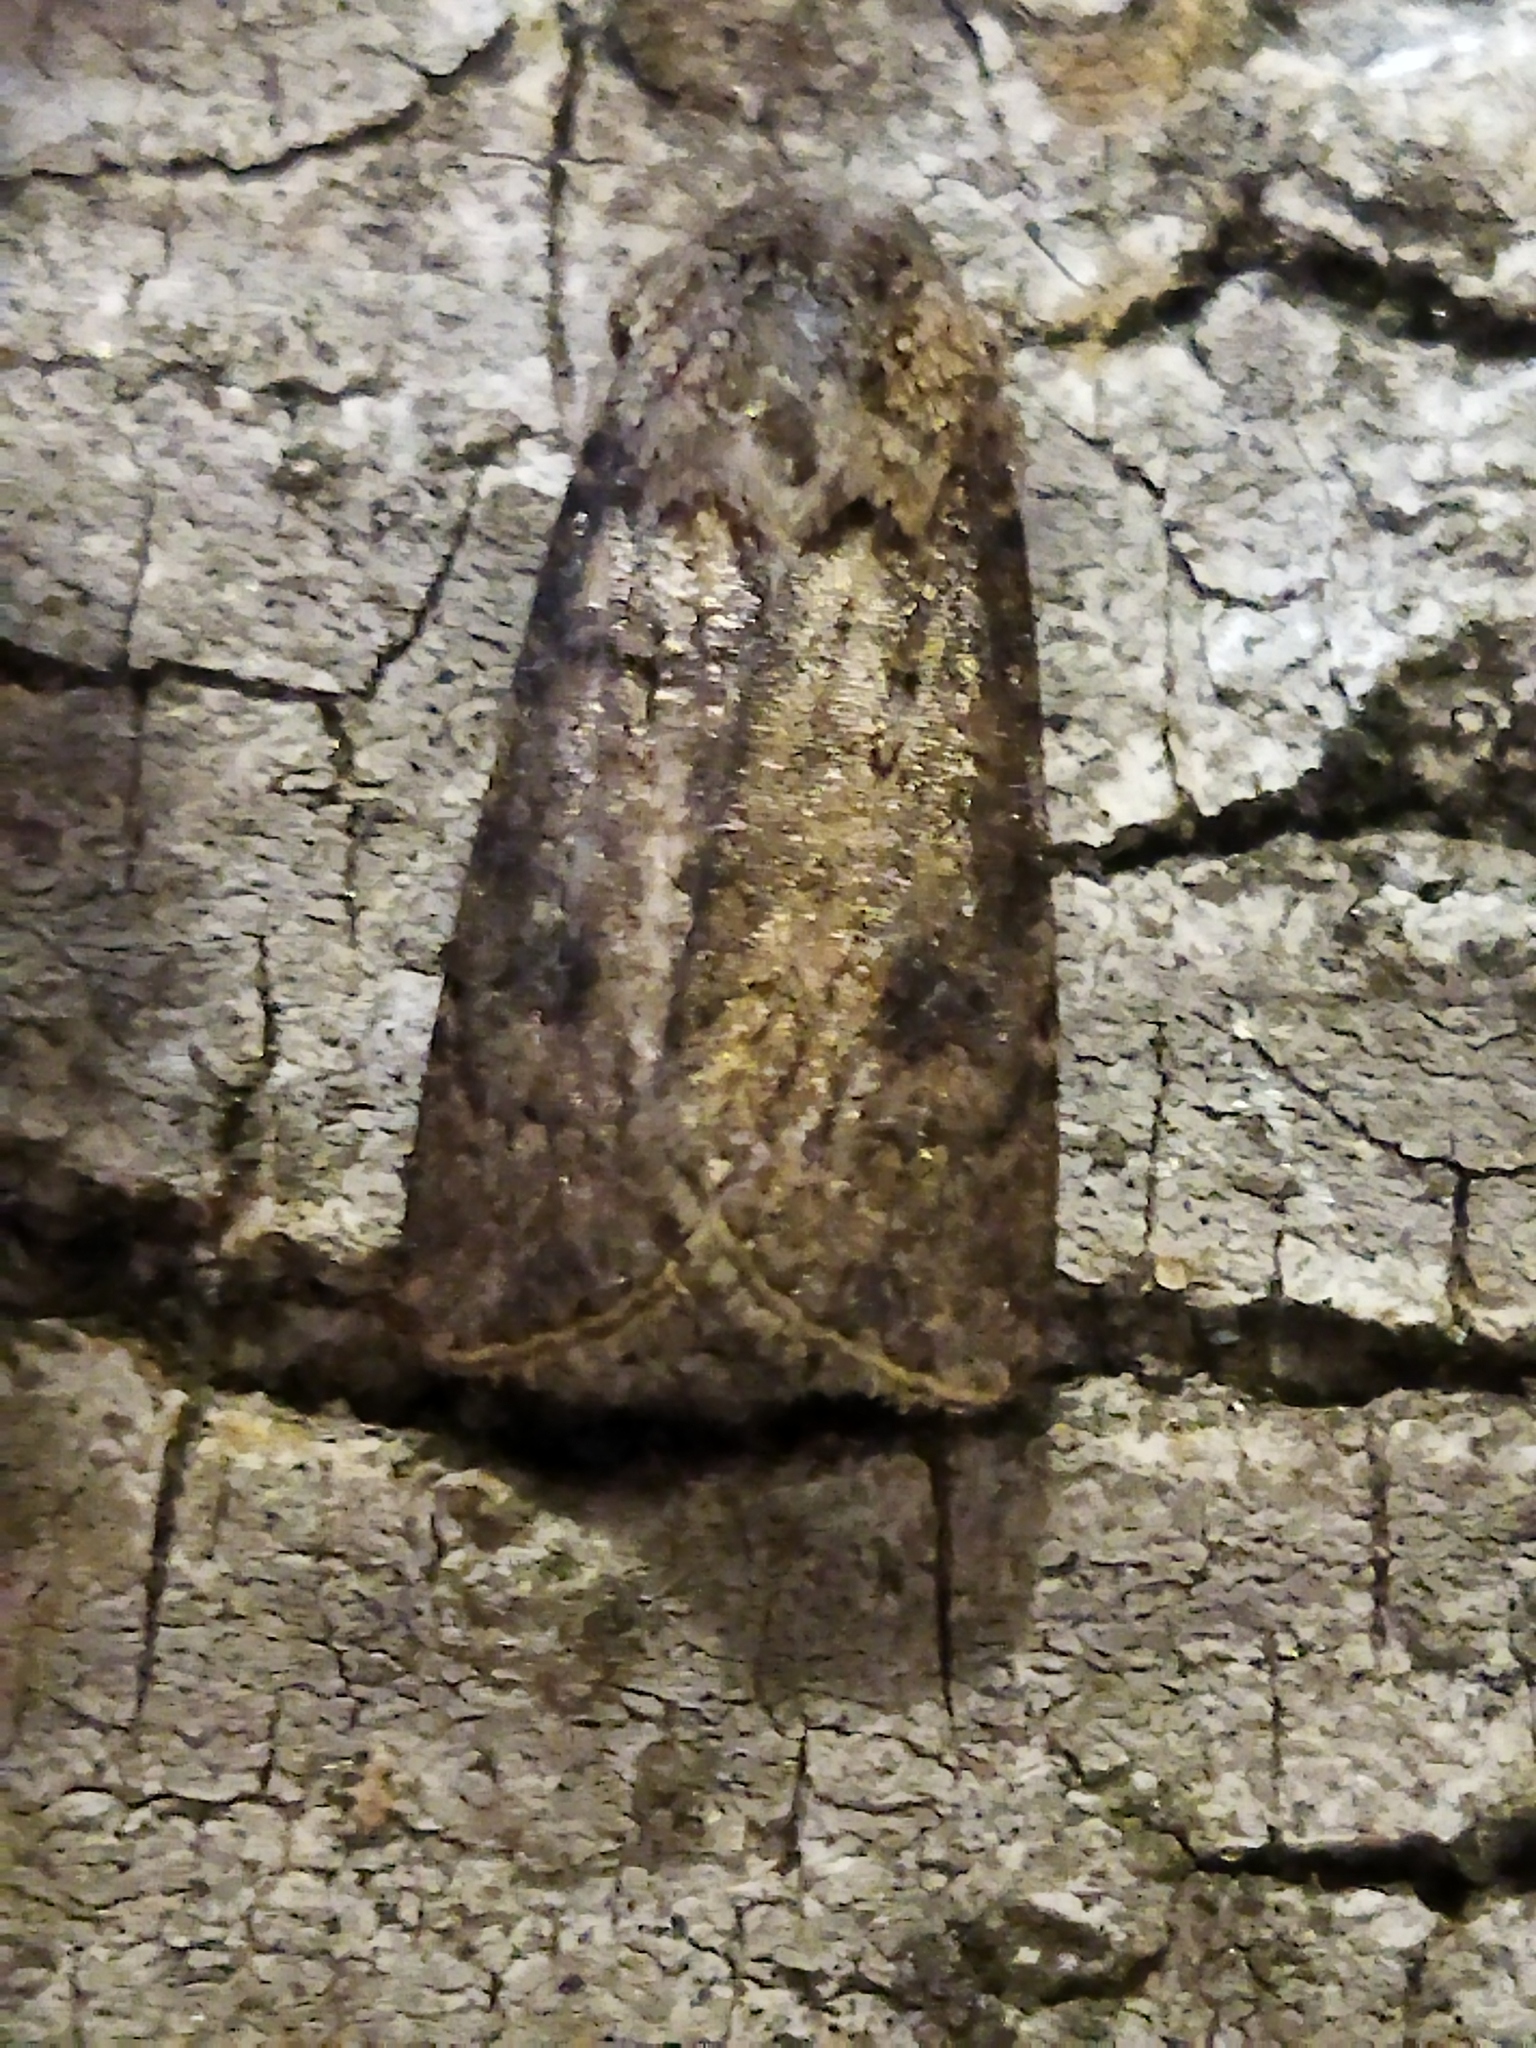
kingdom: Animalia
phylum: Arthropoda
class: Insecta
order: Lepidoptera
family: Noctuidae
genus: Agrotis
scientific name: Agrotis segetum
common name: Turnip moth
